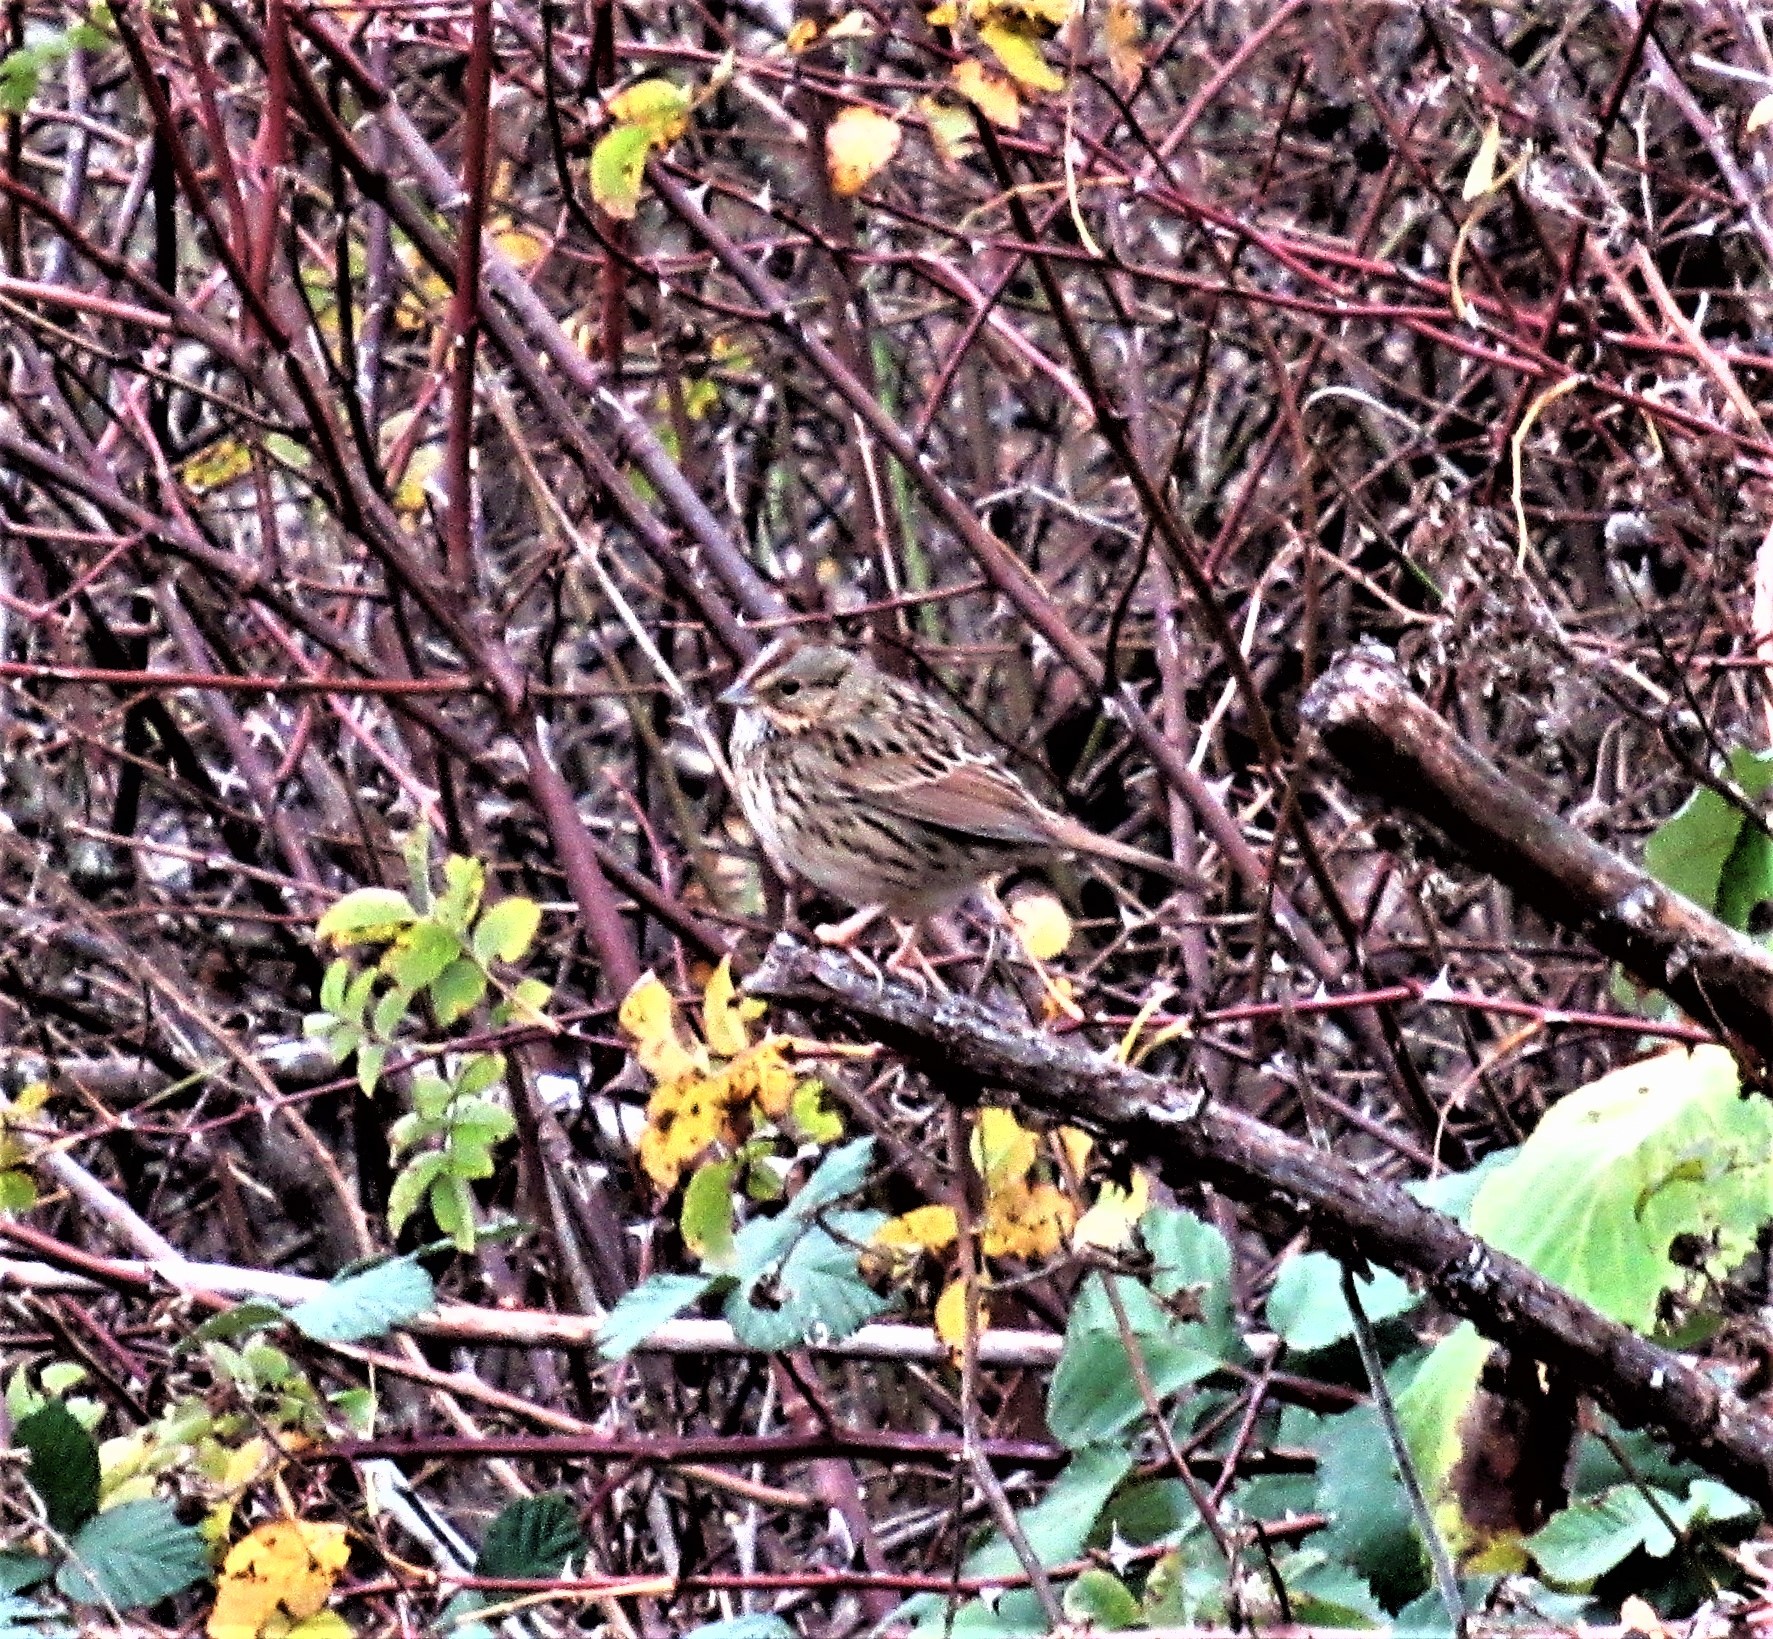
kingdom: Animalia
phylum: Chordata
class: Aves
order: Passeriformes
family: Passerellidae
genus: Melospiza
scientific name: Melospiza lincolnii
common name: Lincoln's sparrow
